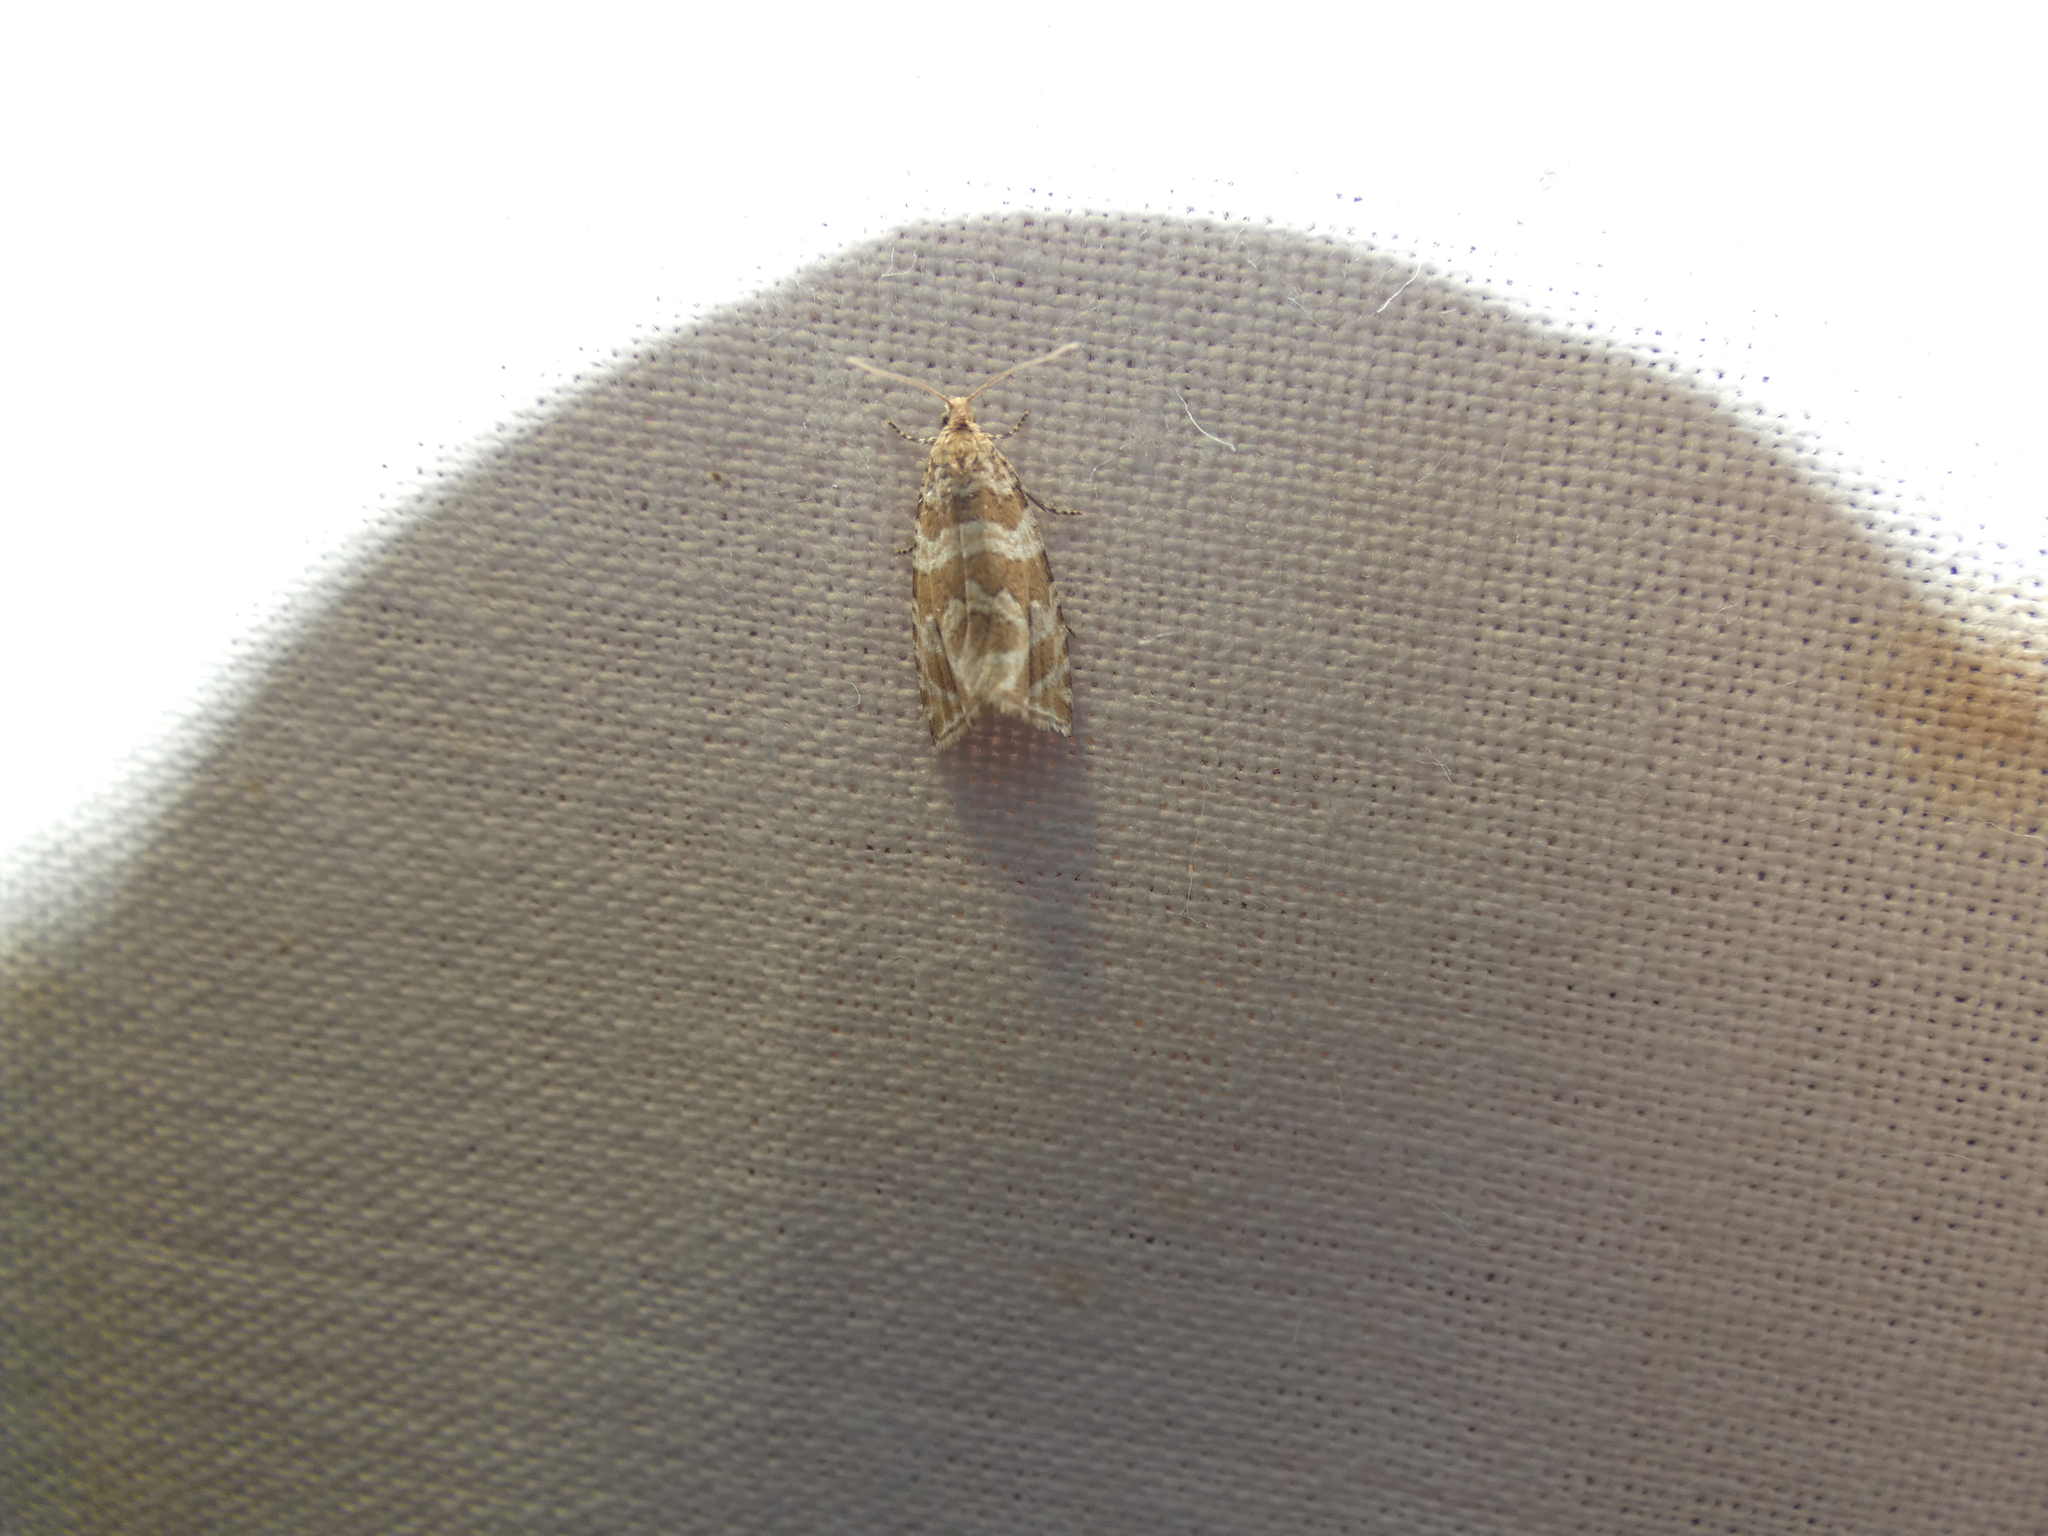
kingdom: Animalia
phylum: Arthropoda
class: Insecta
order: Lepidoptera
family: Tortricidae
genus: Syricoris
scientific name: Syricoris rivulana
